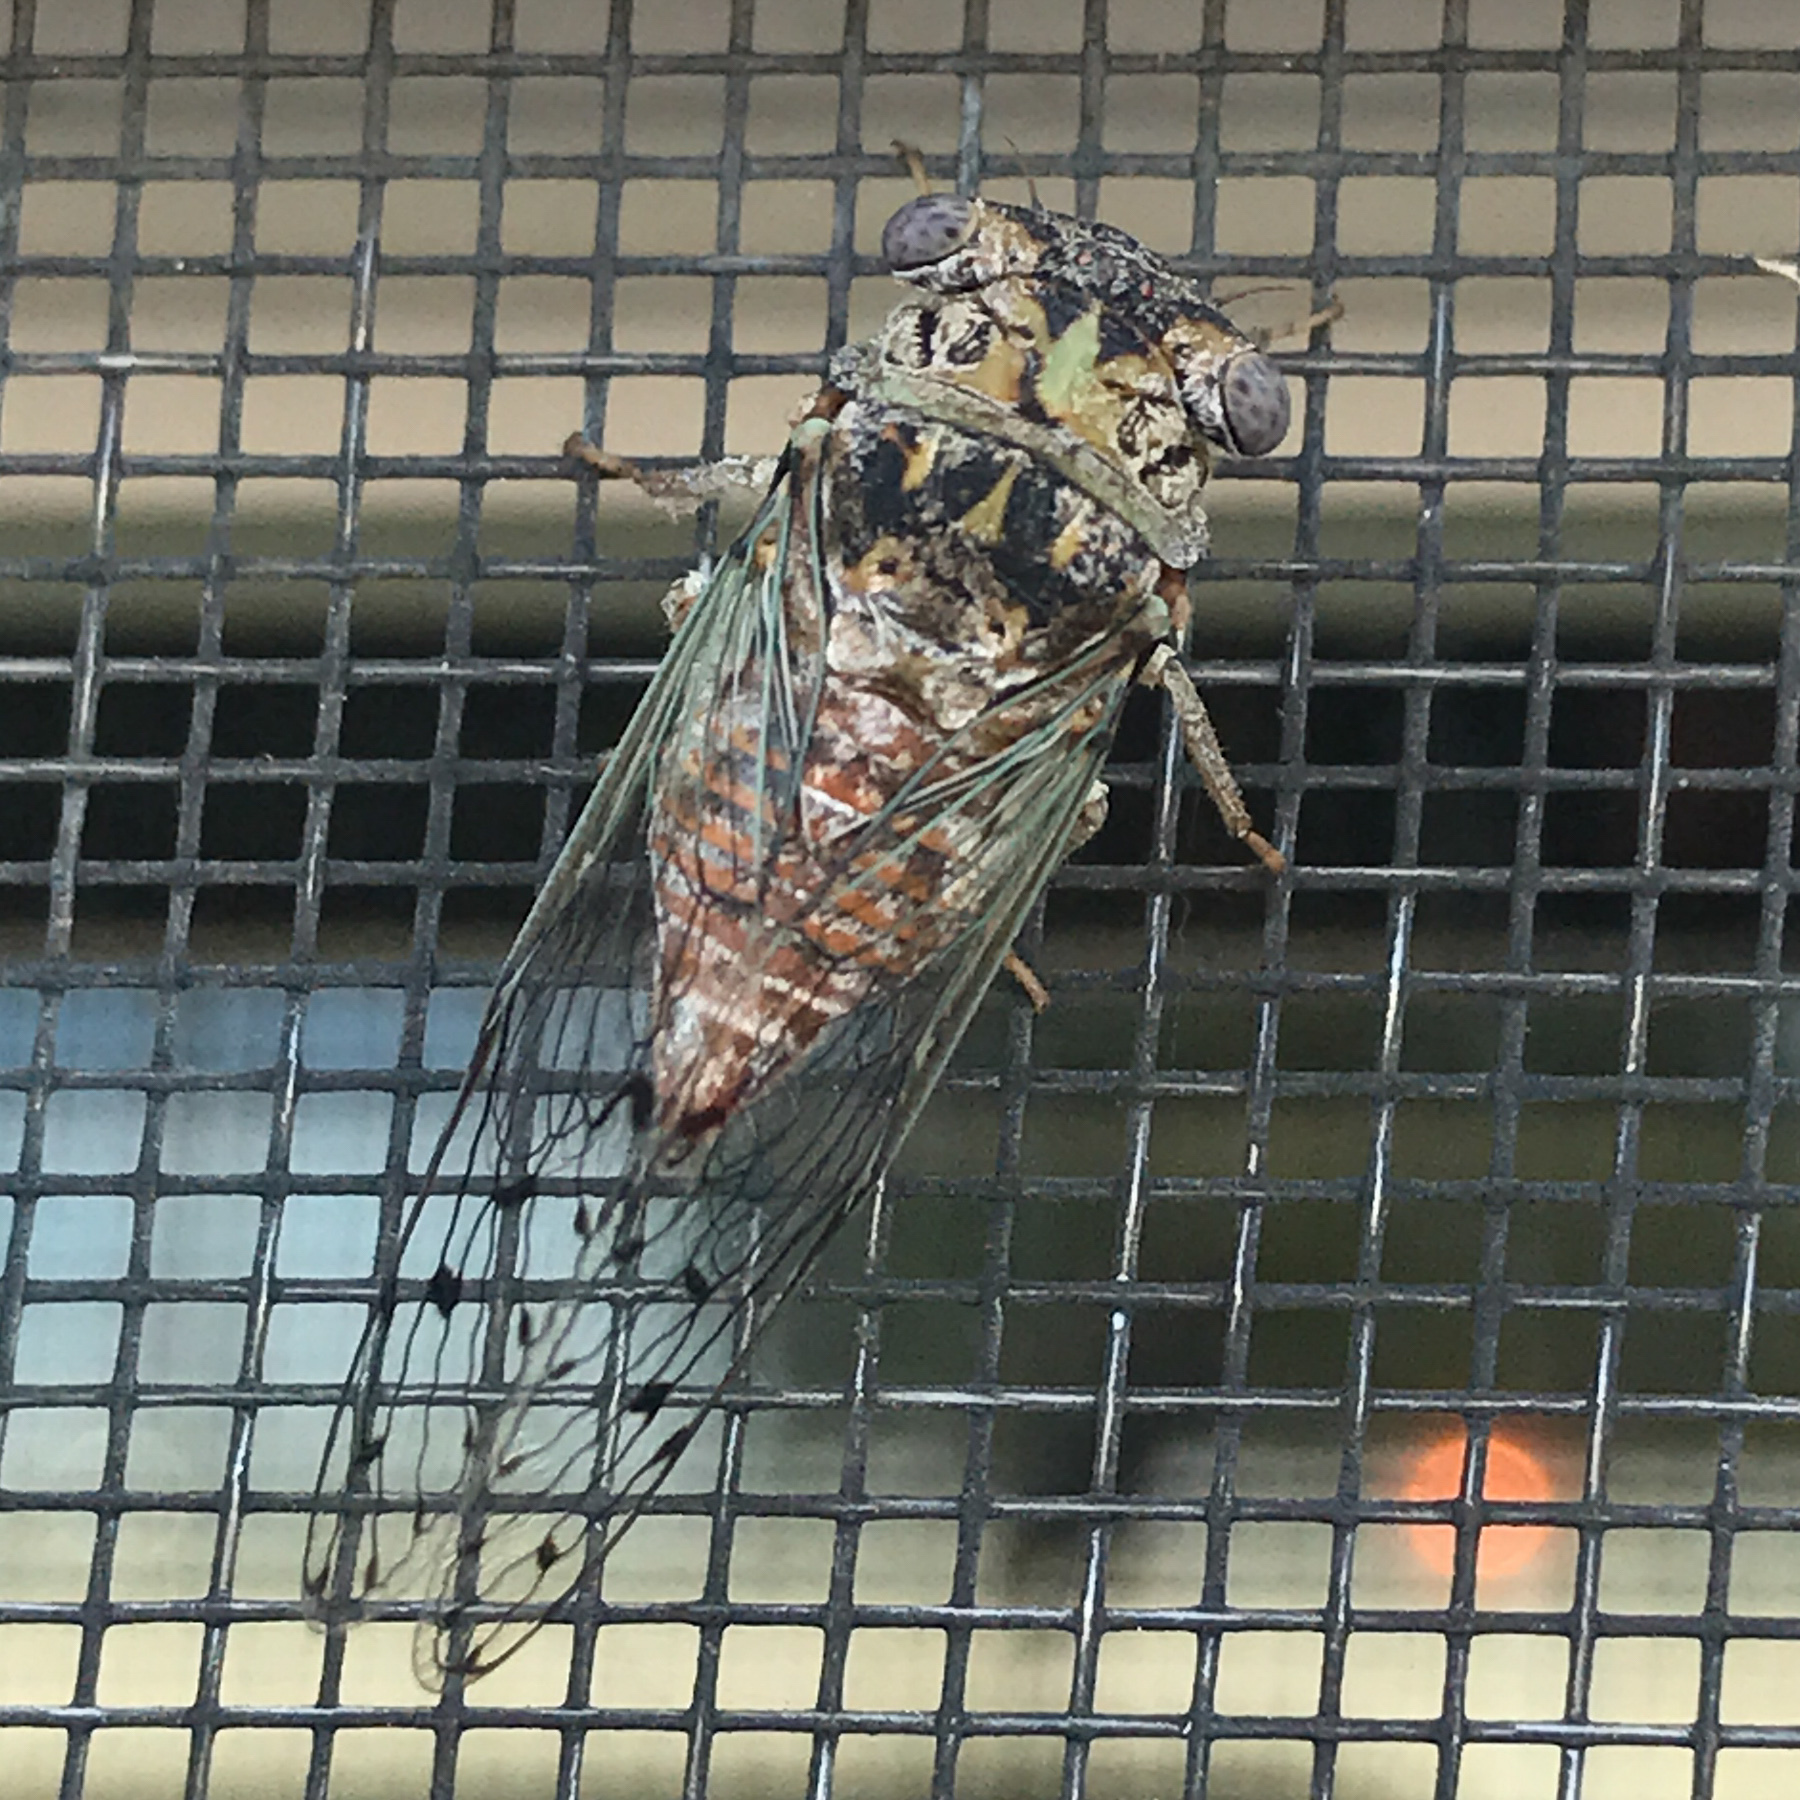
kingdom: Animalia
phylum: Arthropoda
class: Insecta
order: Hemiptera
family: Cicadidae
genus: Pacarina
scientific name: Pacarina puella
